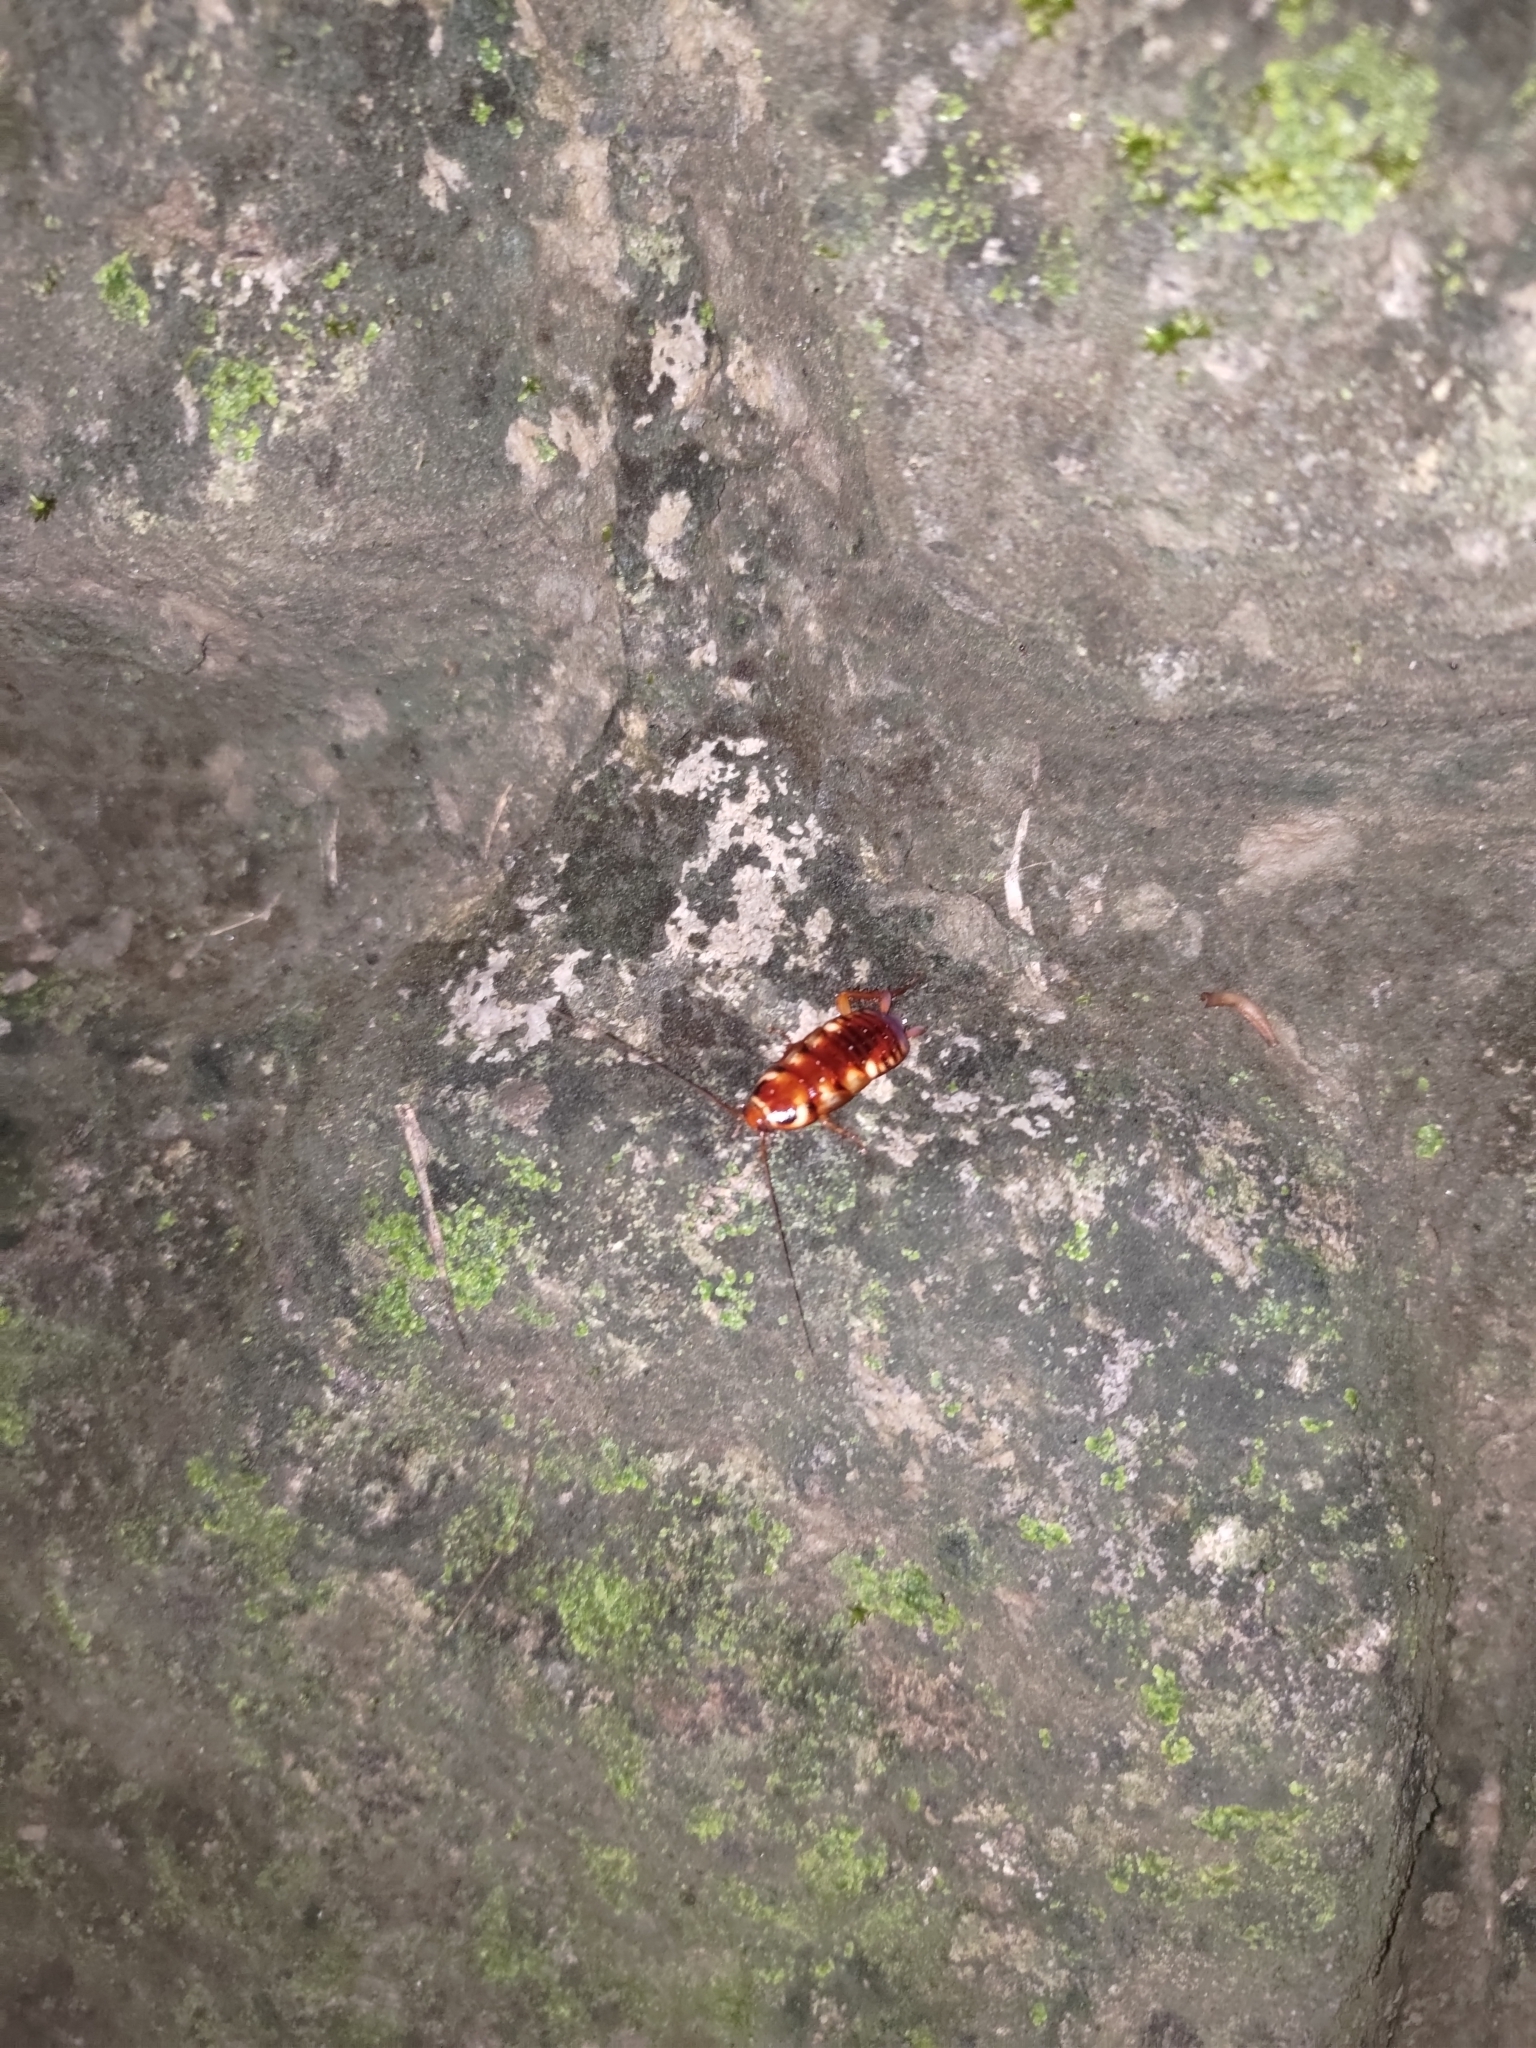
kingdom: Animalia
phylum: Arthropoda
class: Insecta
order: Blattodea
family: Blattidae
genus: Periplaneta
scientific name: Periplaneta australasiae
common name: Australian cockroach
